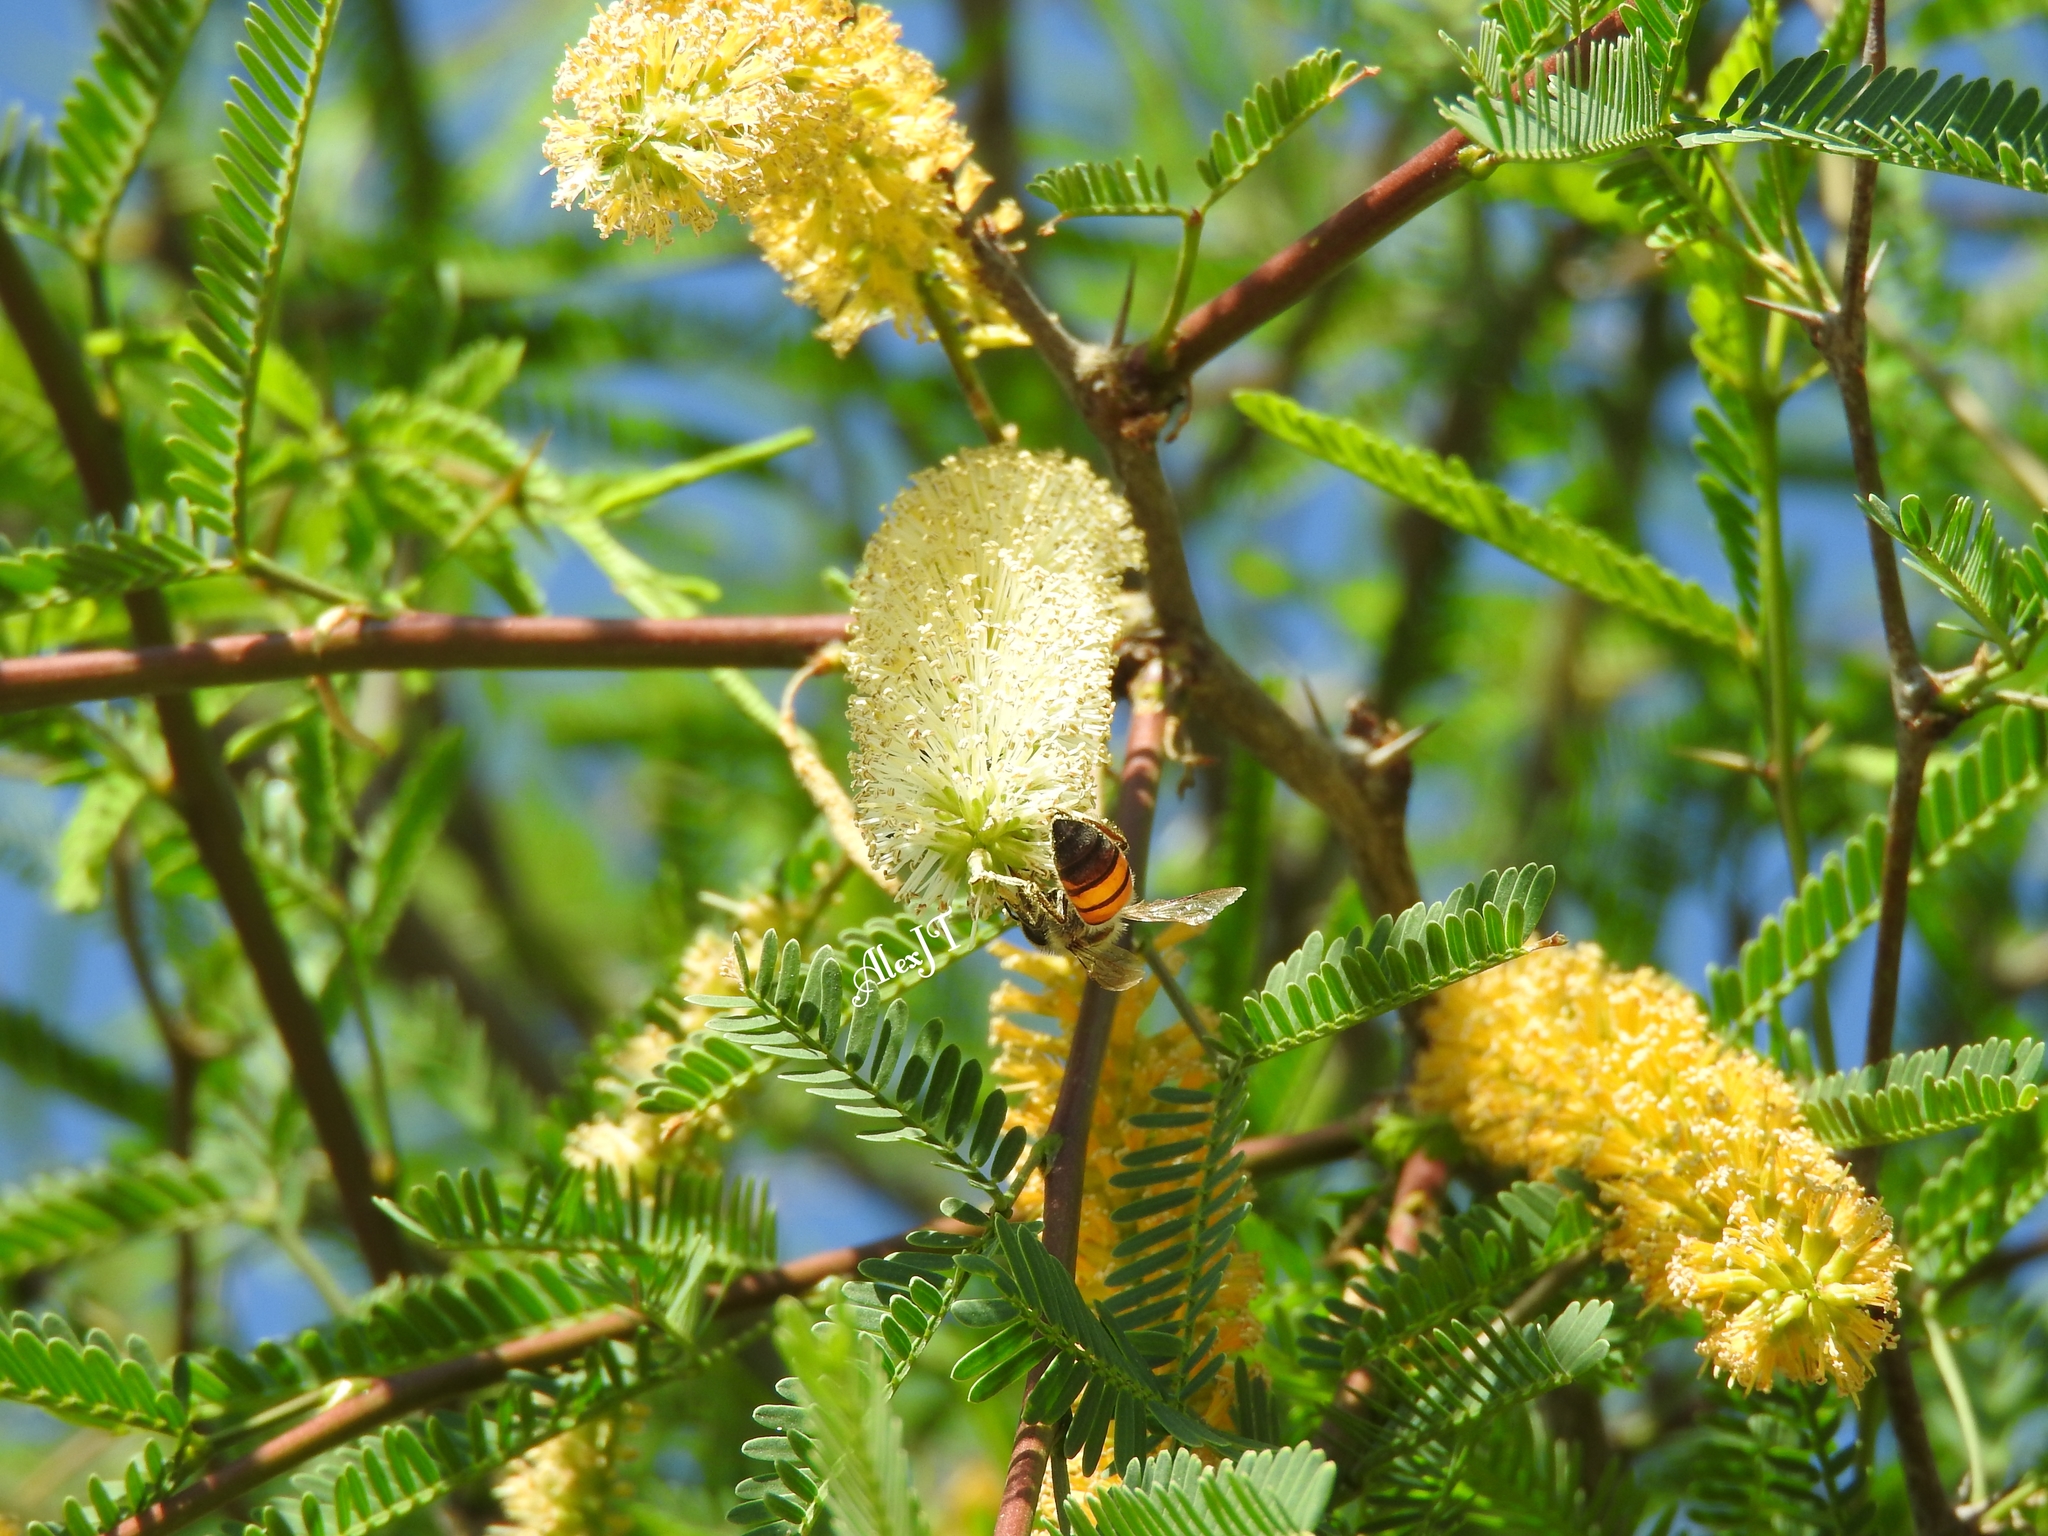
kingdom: Plantae
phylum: Tracheophyta
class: Magnoliopsida
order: Fabales
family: Fabaceae
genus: Prosopis
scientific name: Prosopis laevigata
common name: Smooth mesquite
